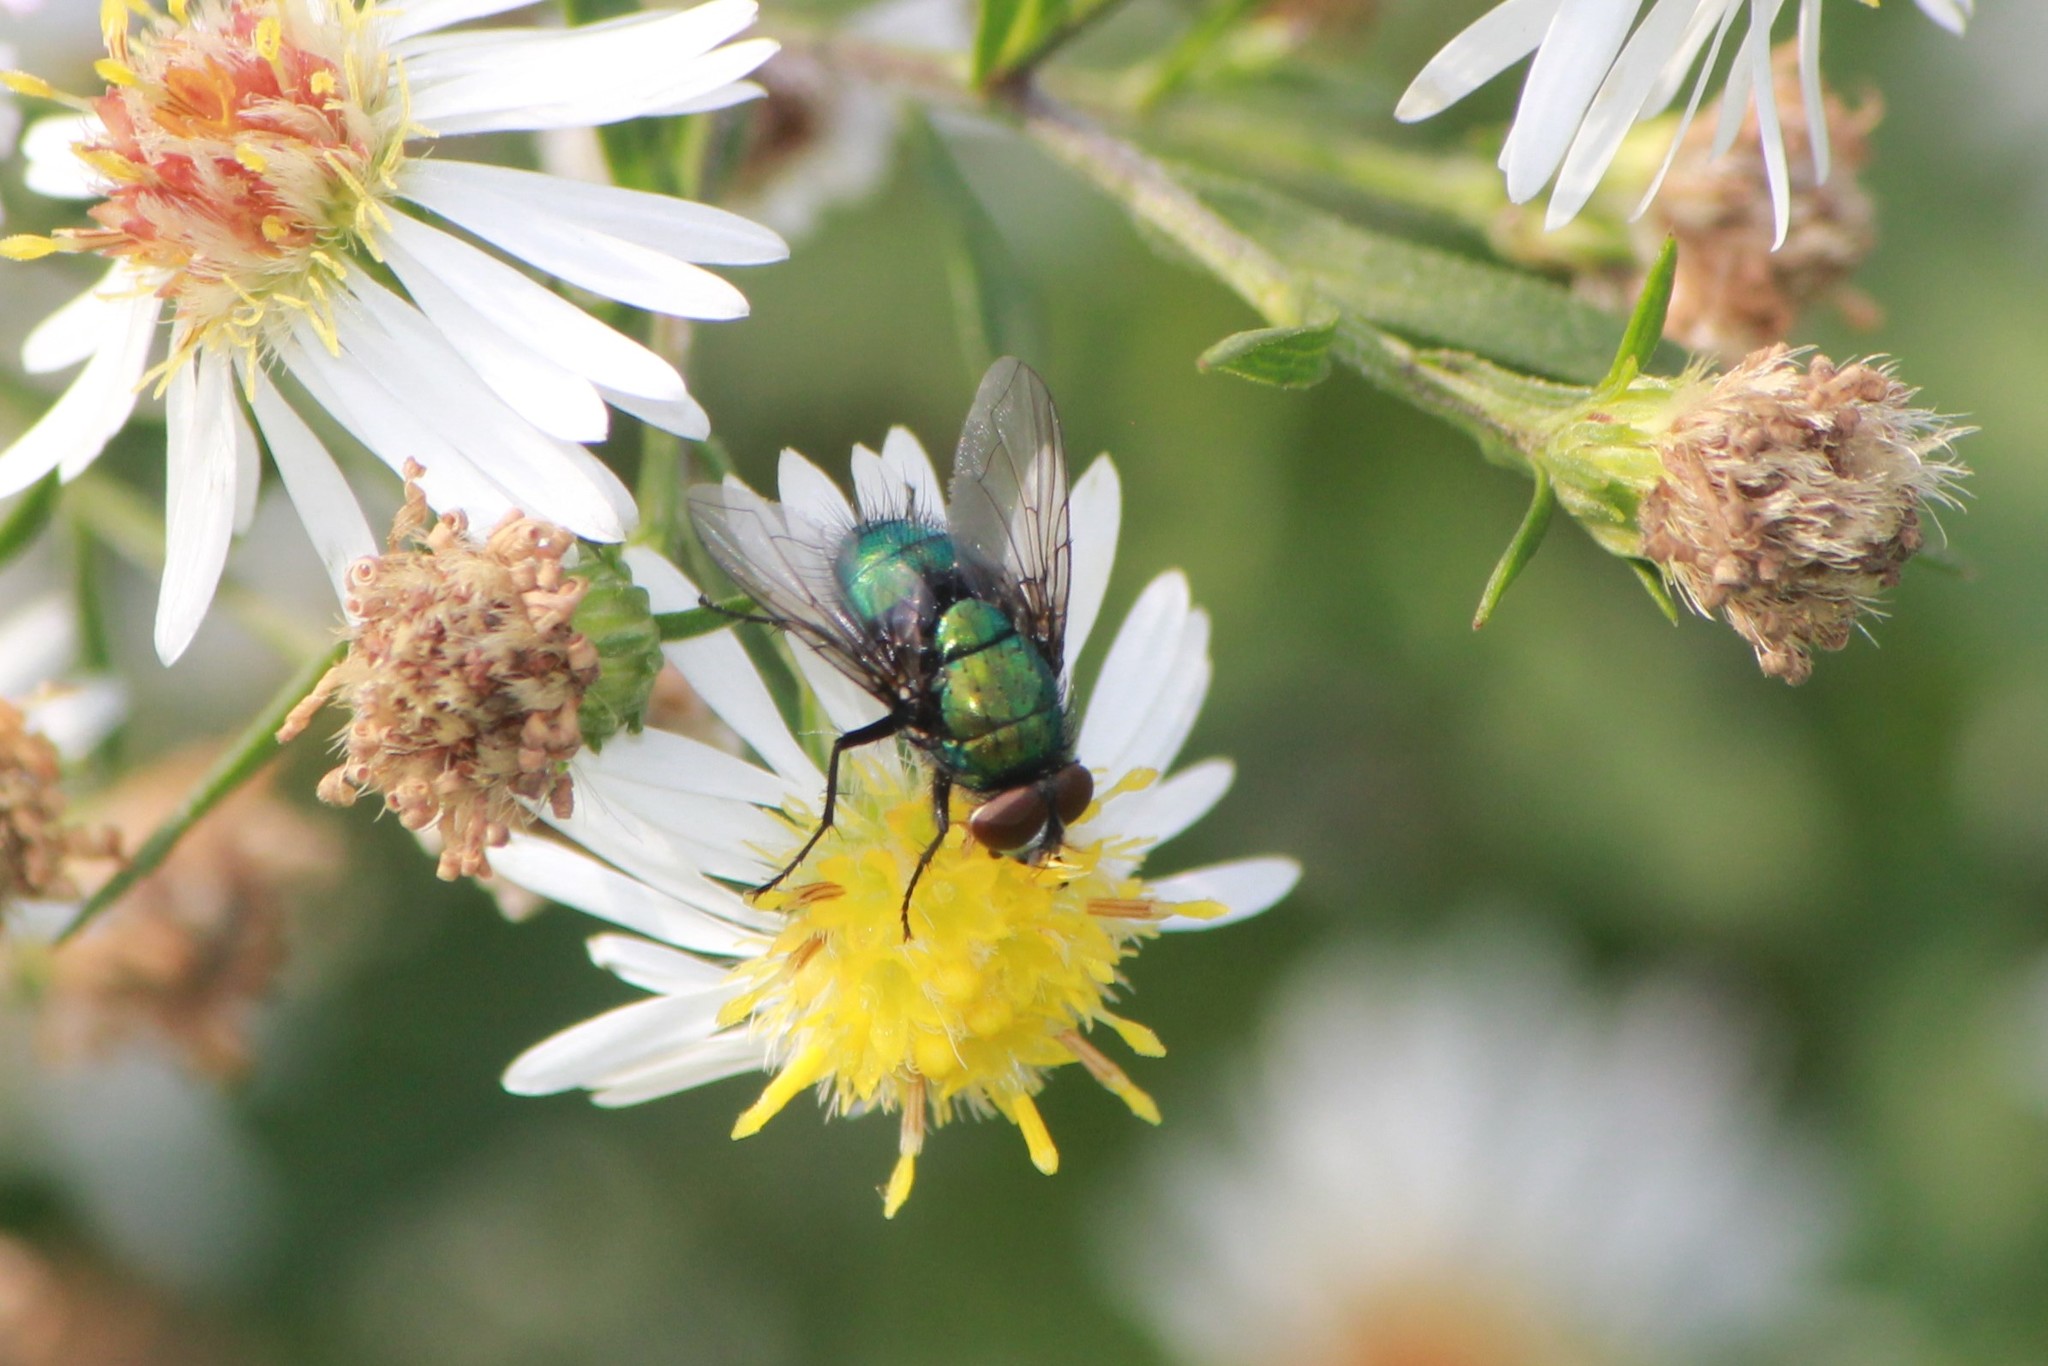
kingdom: Animalia
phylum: Arthropoda
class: Insecta
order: Diptera
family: Calliphoridae
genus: Lucilia
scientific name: Lucilia sericata
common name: Blow fly
